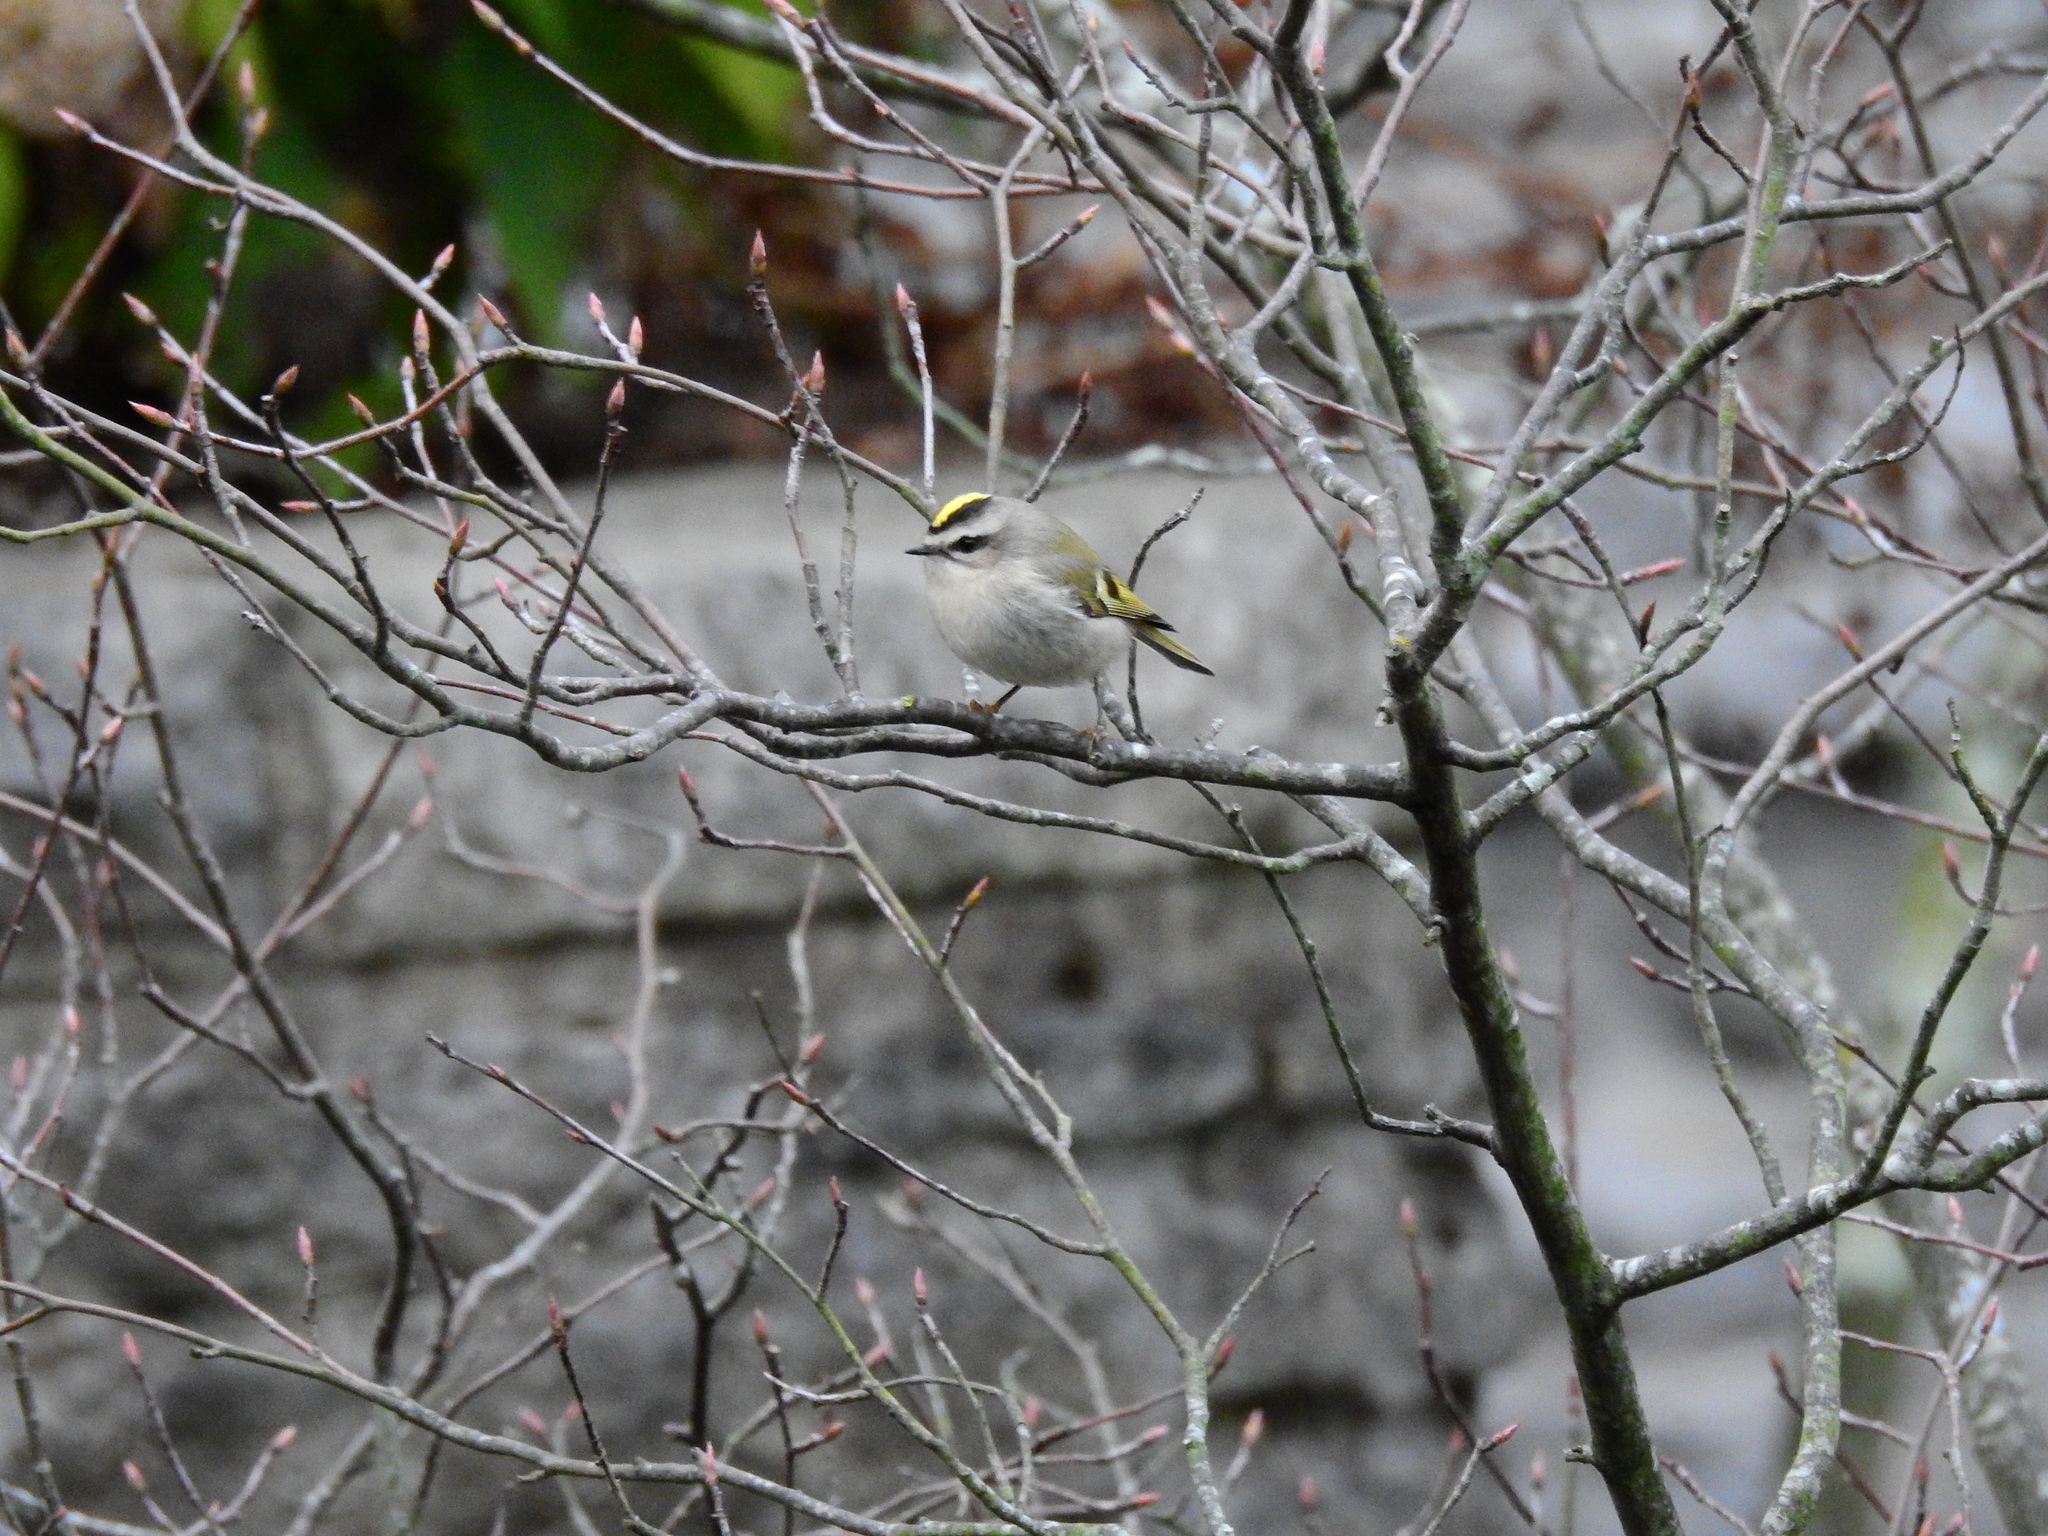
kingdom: Animalia
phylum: Chordata
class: Aves
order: Passeriformes
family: Regulidae
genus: Regulus
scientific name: Regulus satrapa
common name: Golden-crowned kinglet
